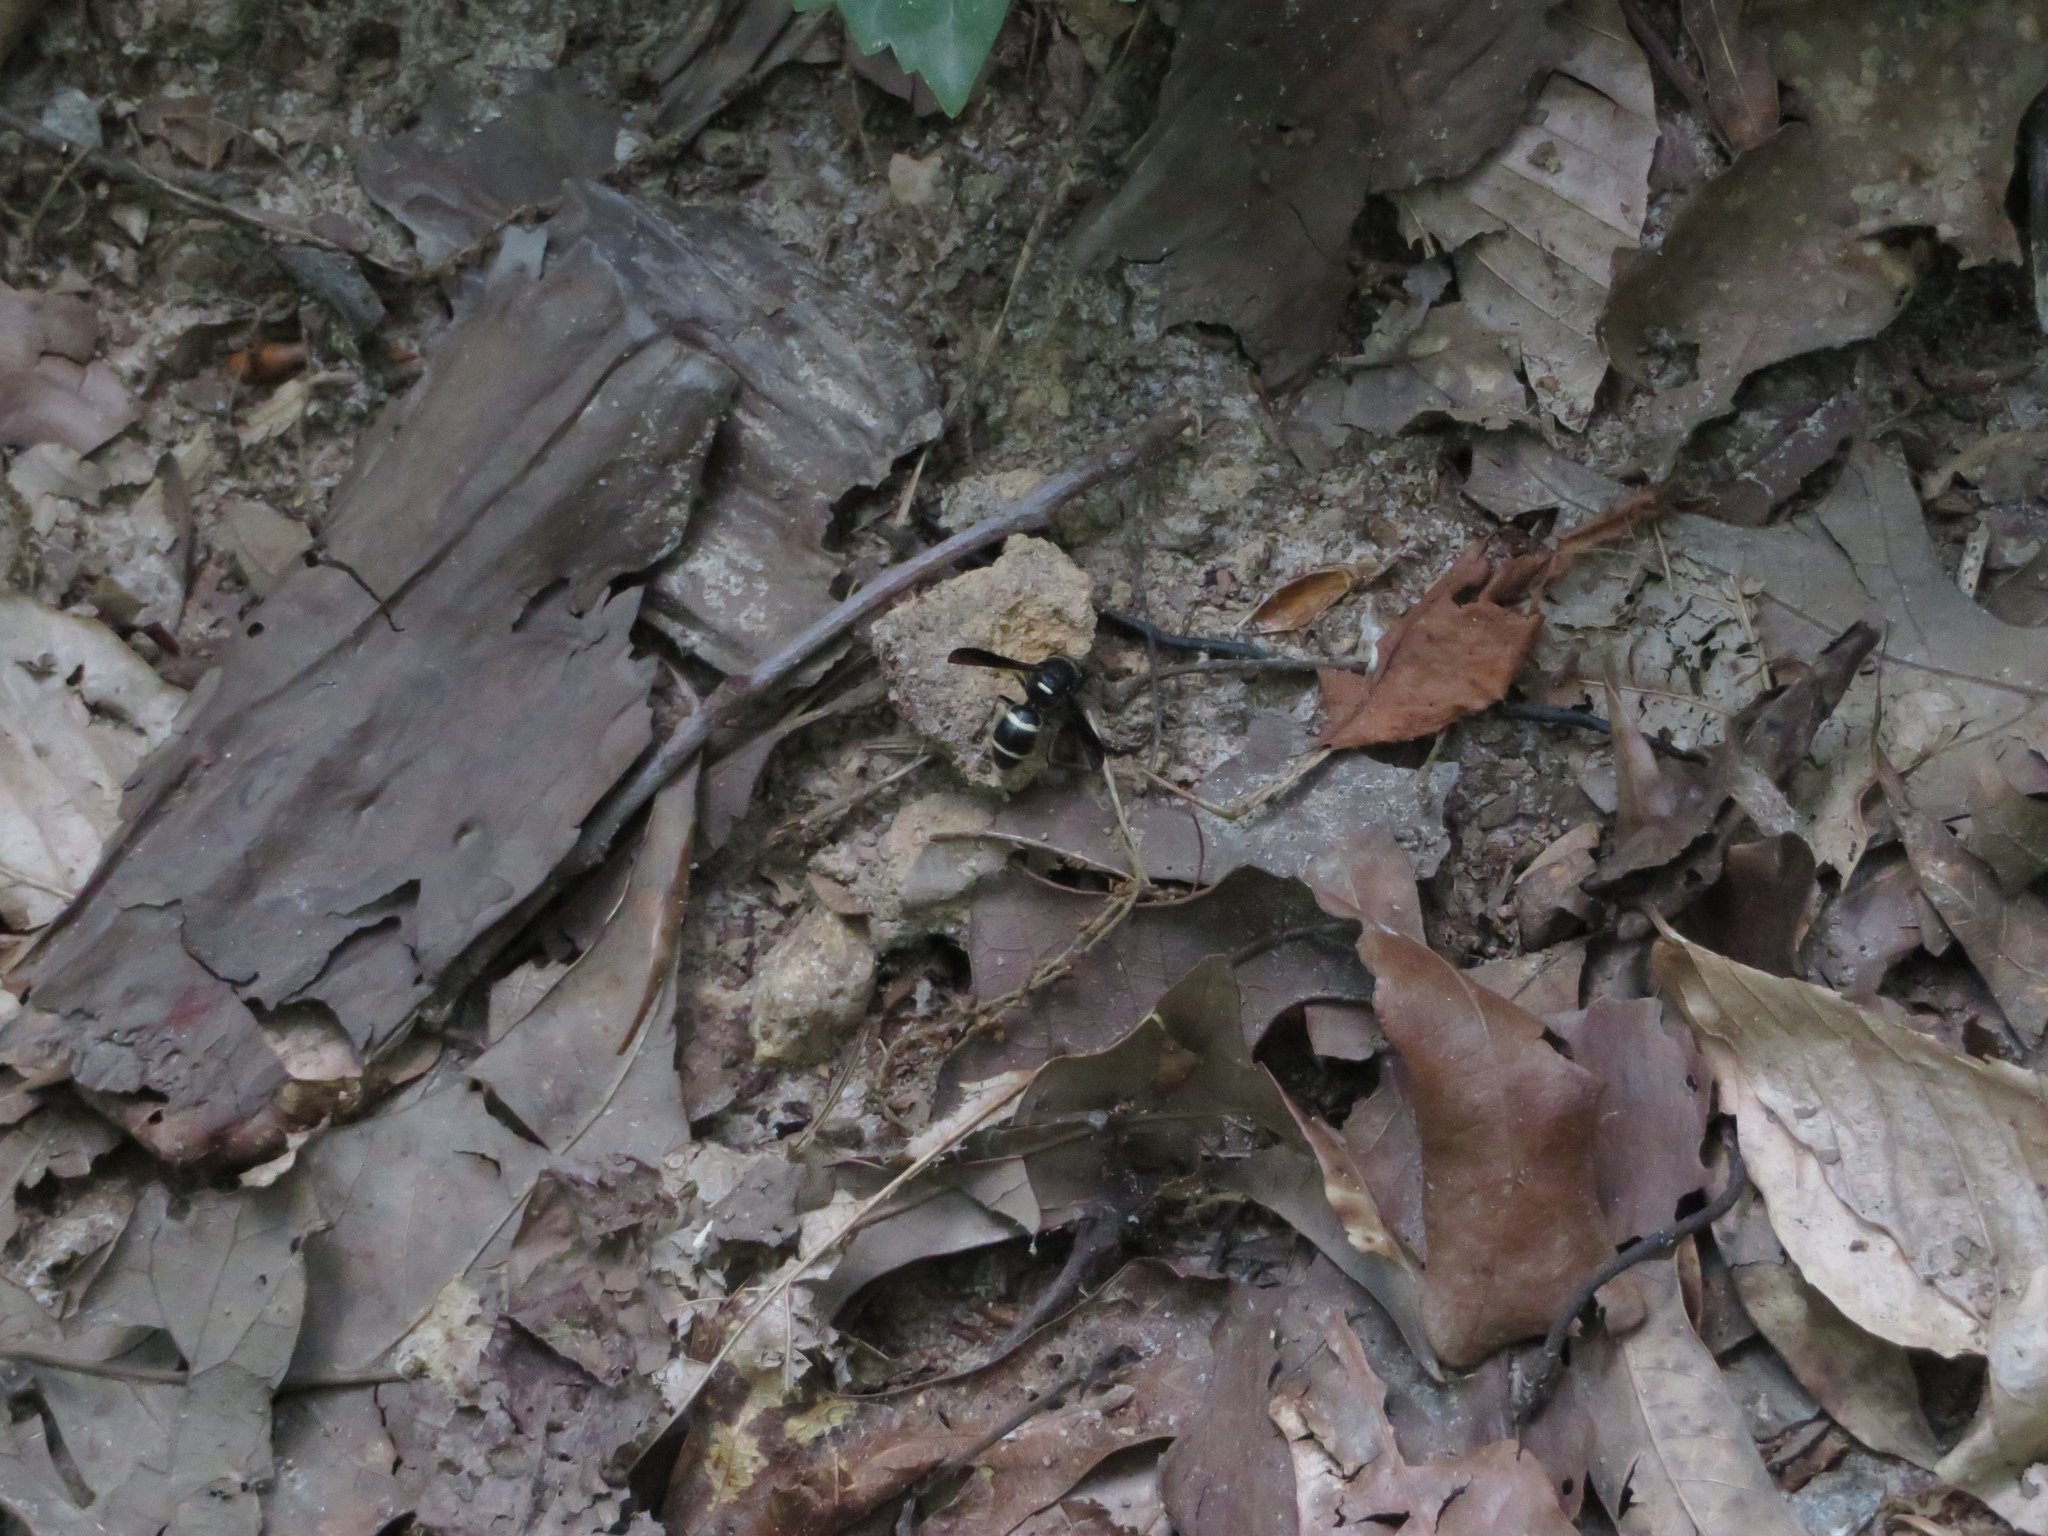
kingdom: Animalia
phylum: Arthropoda
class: Insecta
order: Hymenoptera
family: Eumenidae
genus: Euodynerus
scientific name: Euodynerus megaera
